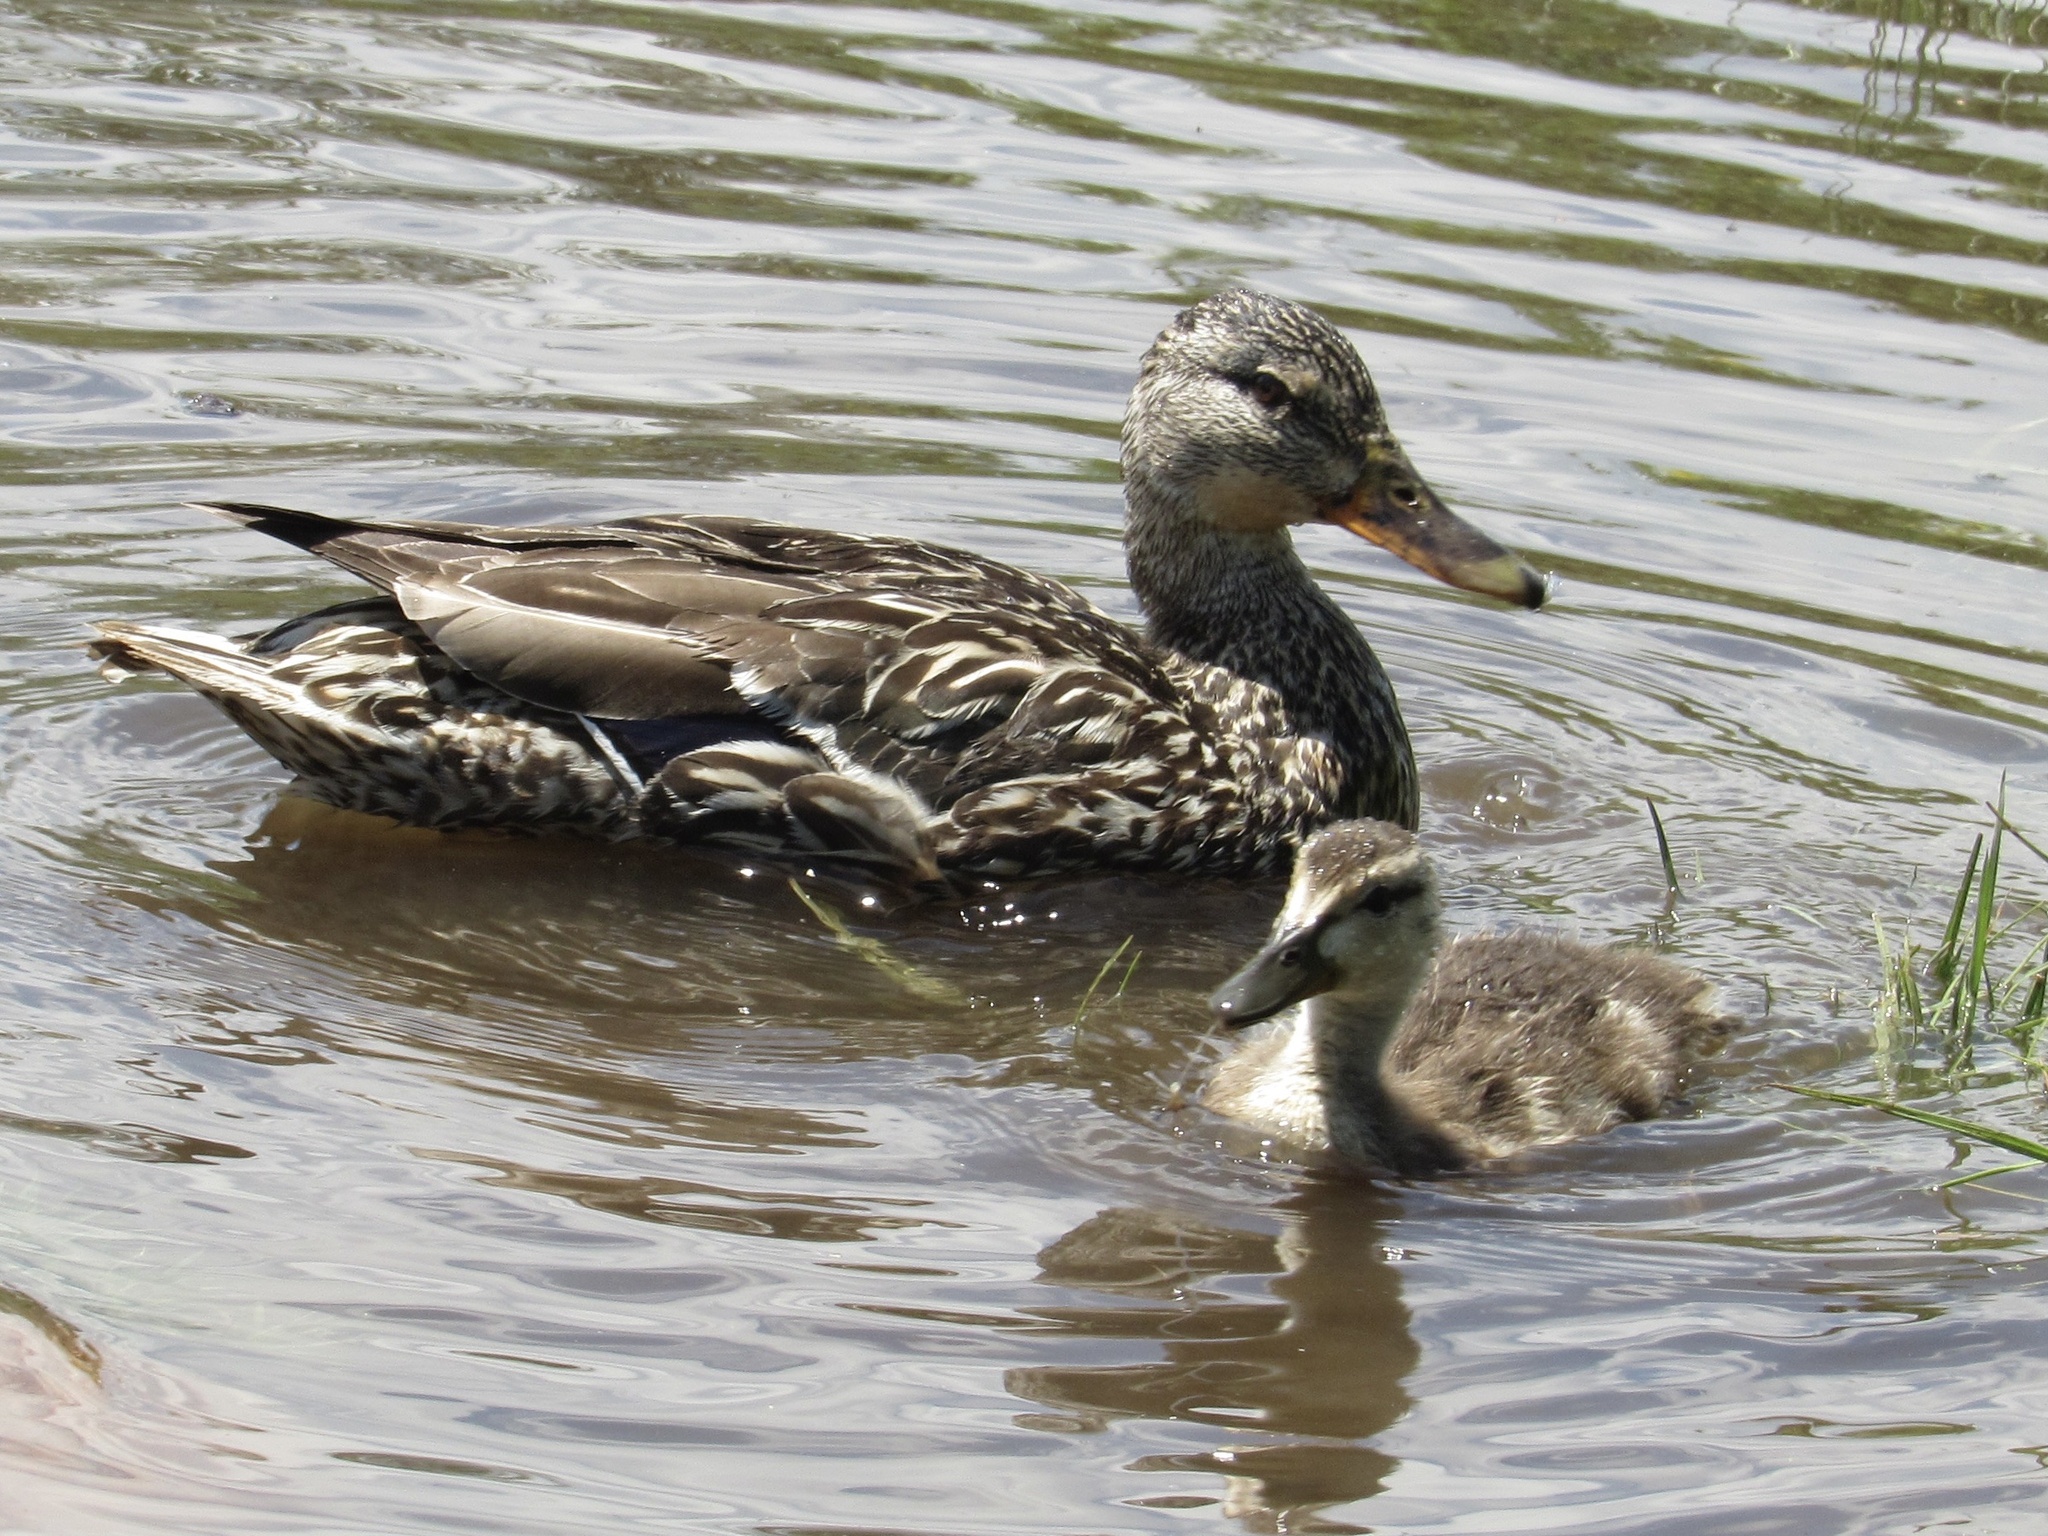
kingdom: Animalia
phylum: Chordata
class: Aves
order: Anseriformes
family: Anatidae
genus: Anas
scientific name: Anas platyrhynchos
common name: Mallard
